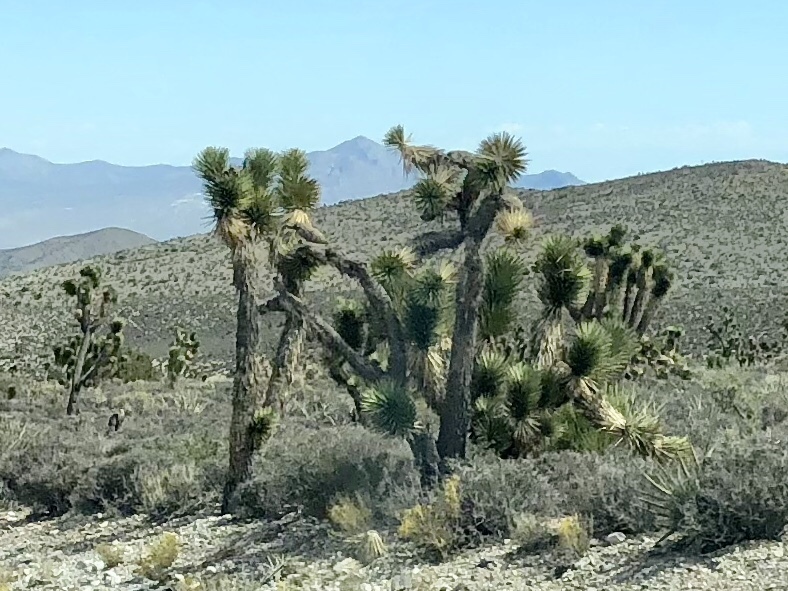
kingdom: Plantae
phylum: Tracheophyta
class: Liliopsida
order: Asparagales
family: Asparagaceae
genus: Yucca
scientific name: Yucca brevifolia
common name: Joshua tree
